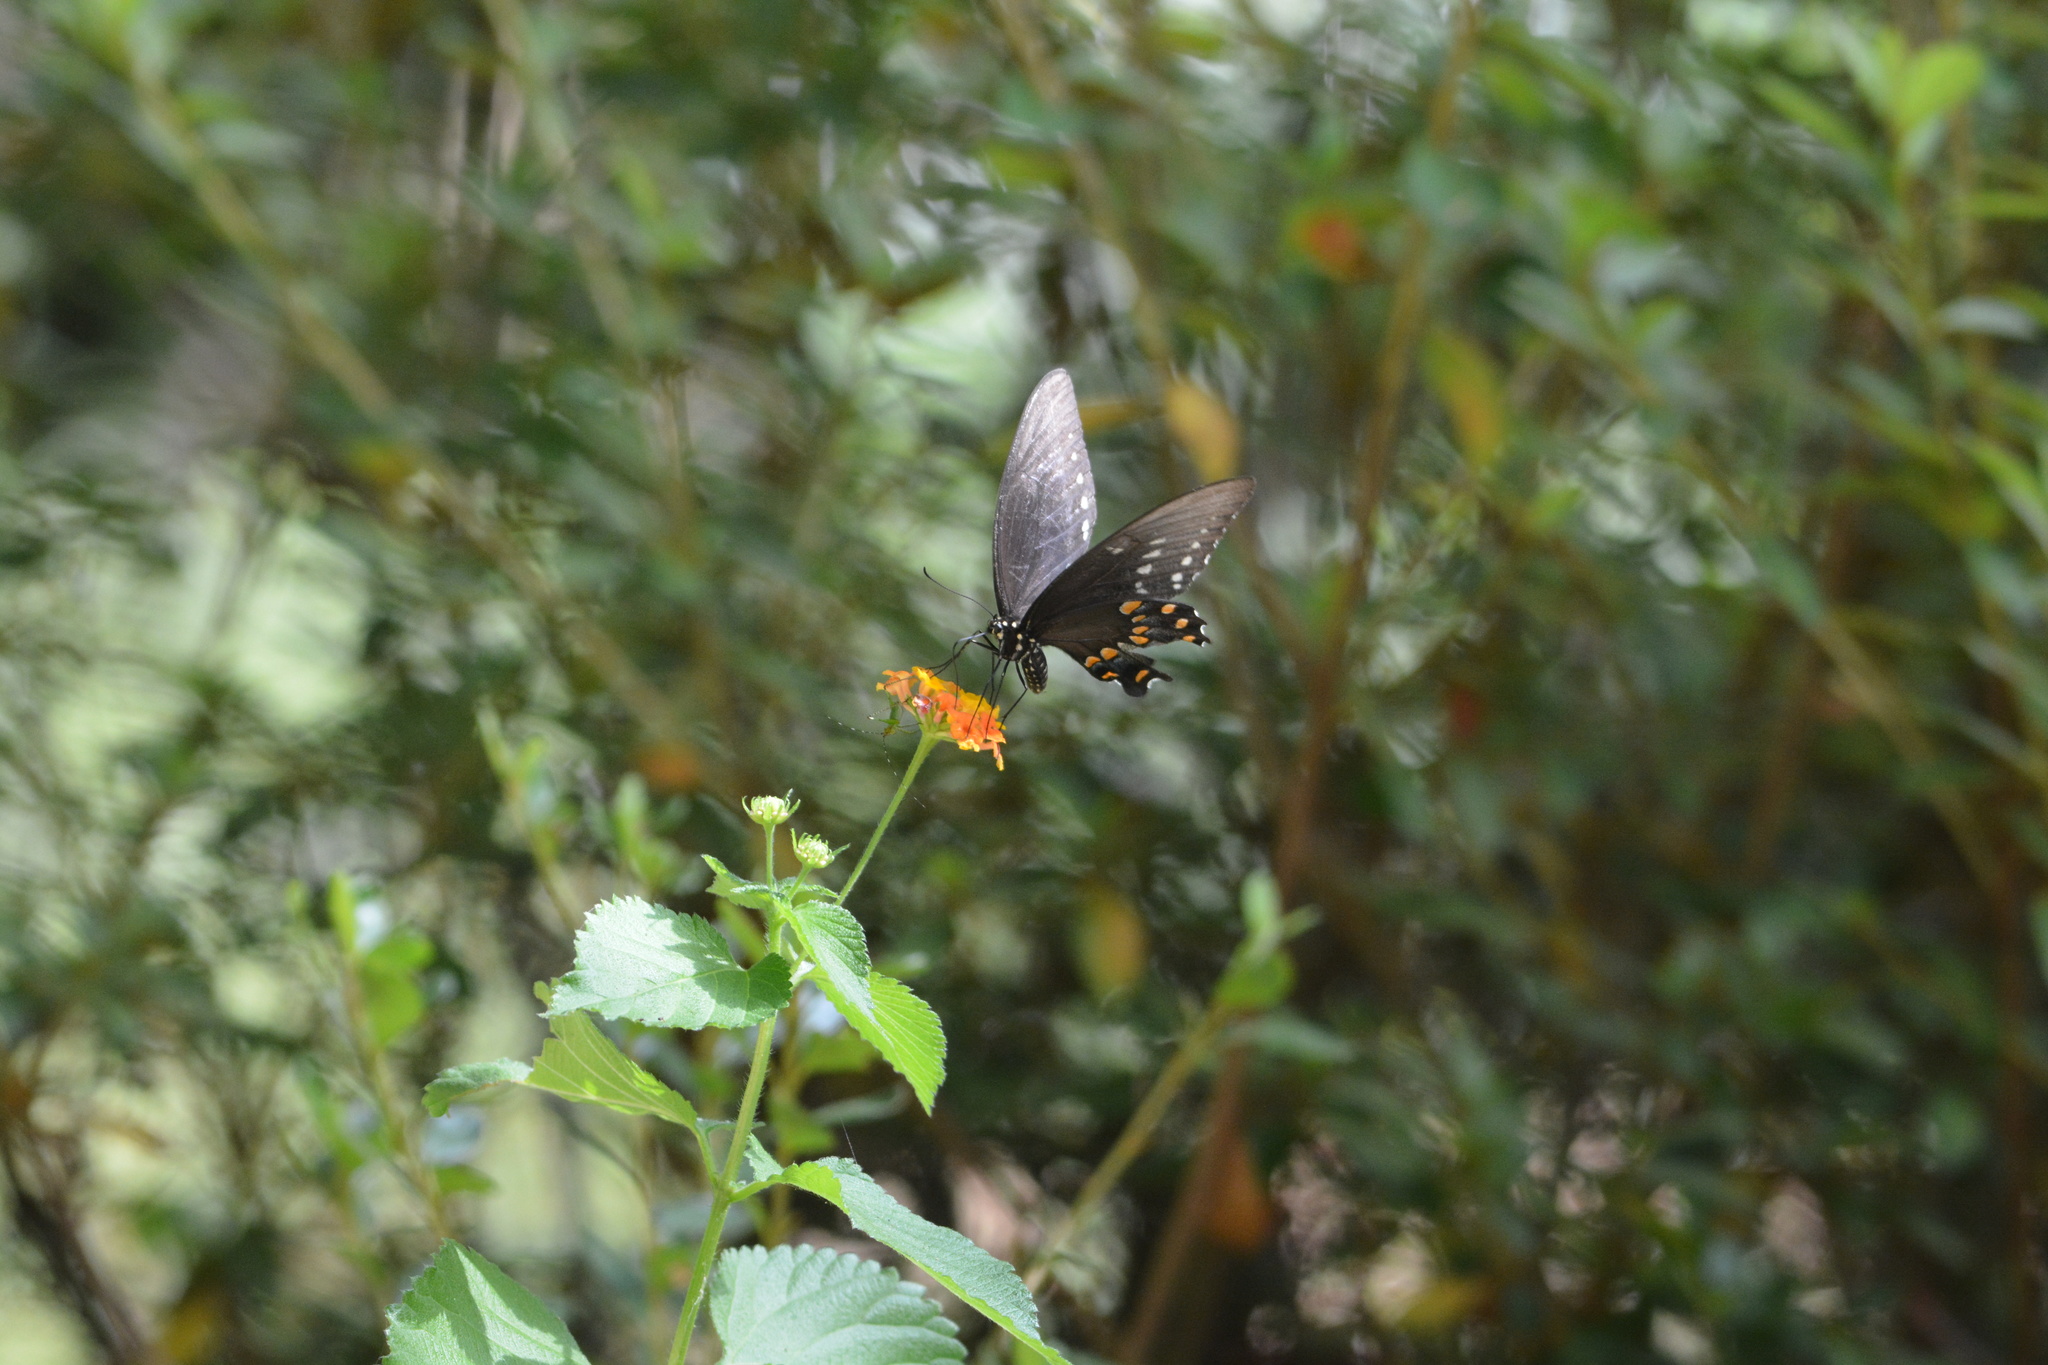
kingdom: Animalia
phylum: Arthropoda
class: Insecta
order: Lepidoptera
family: Papilionidae
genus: Papilio
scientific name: Papilio troilus
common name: Spicebush swallowtail
